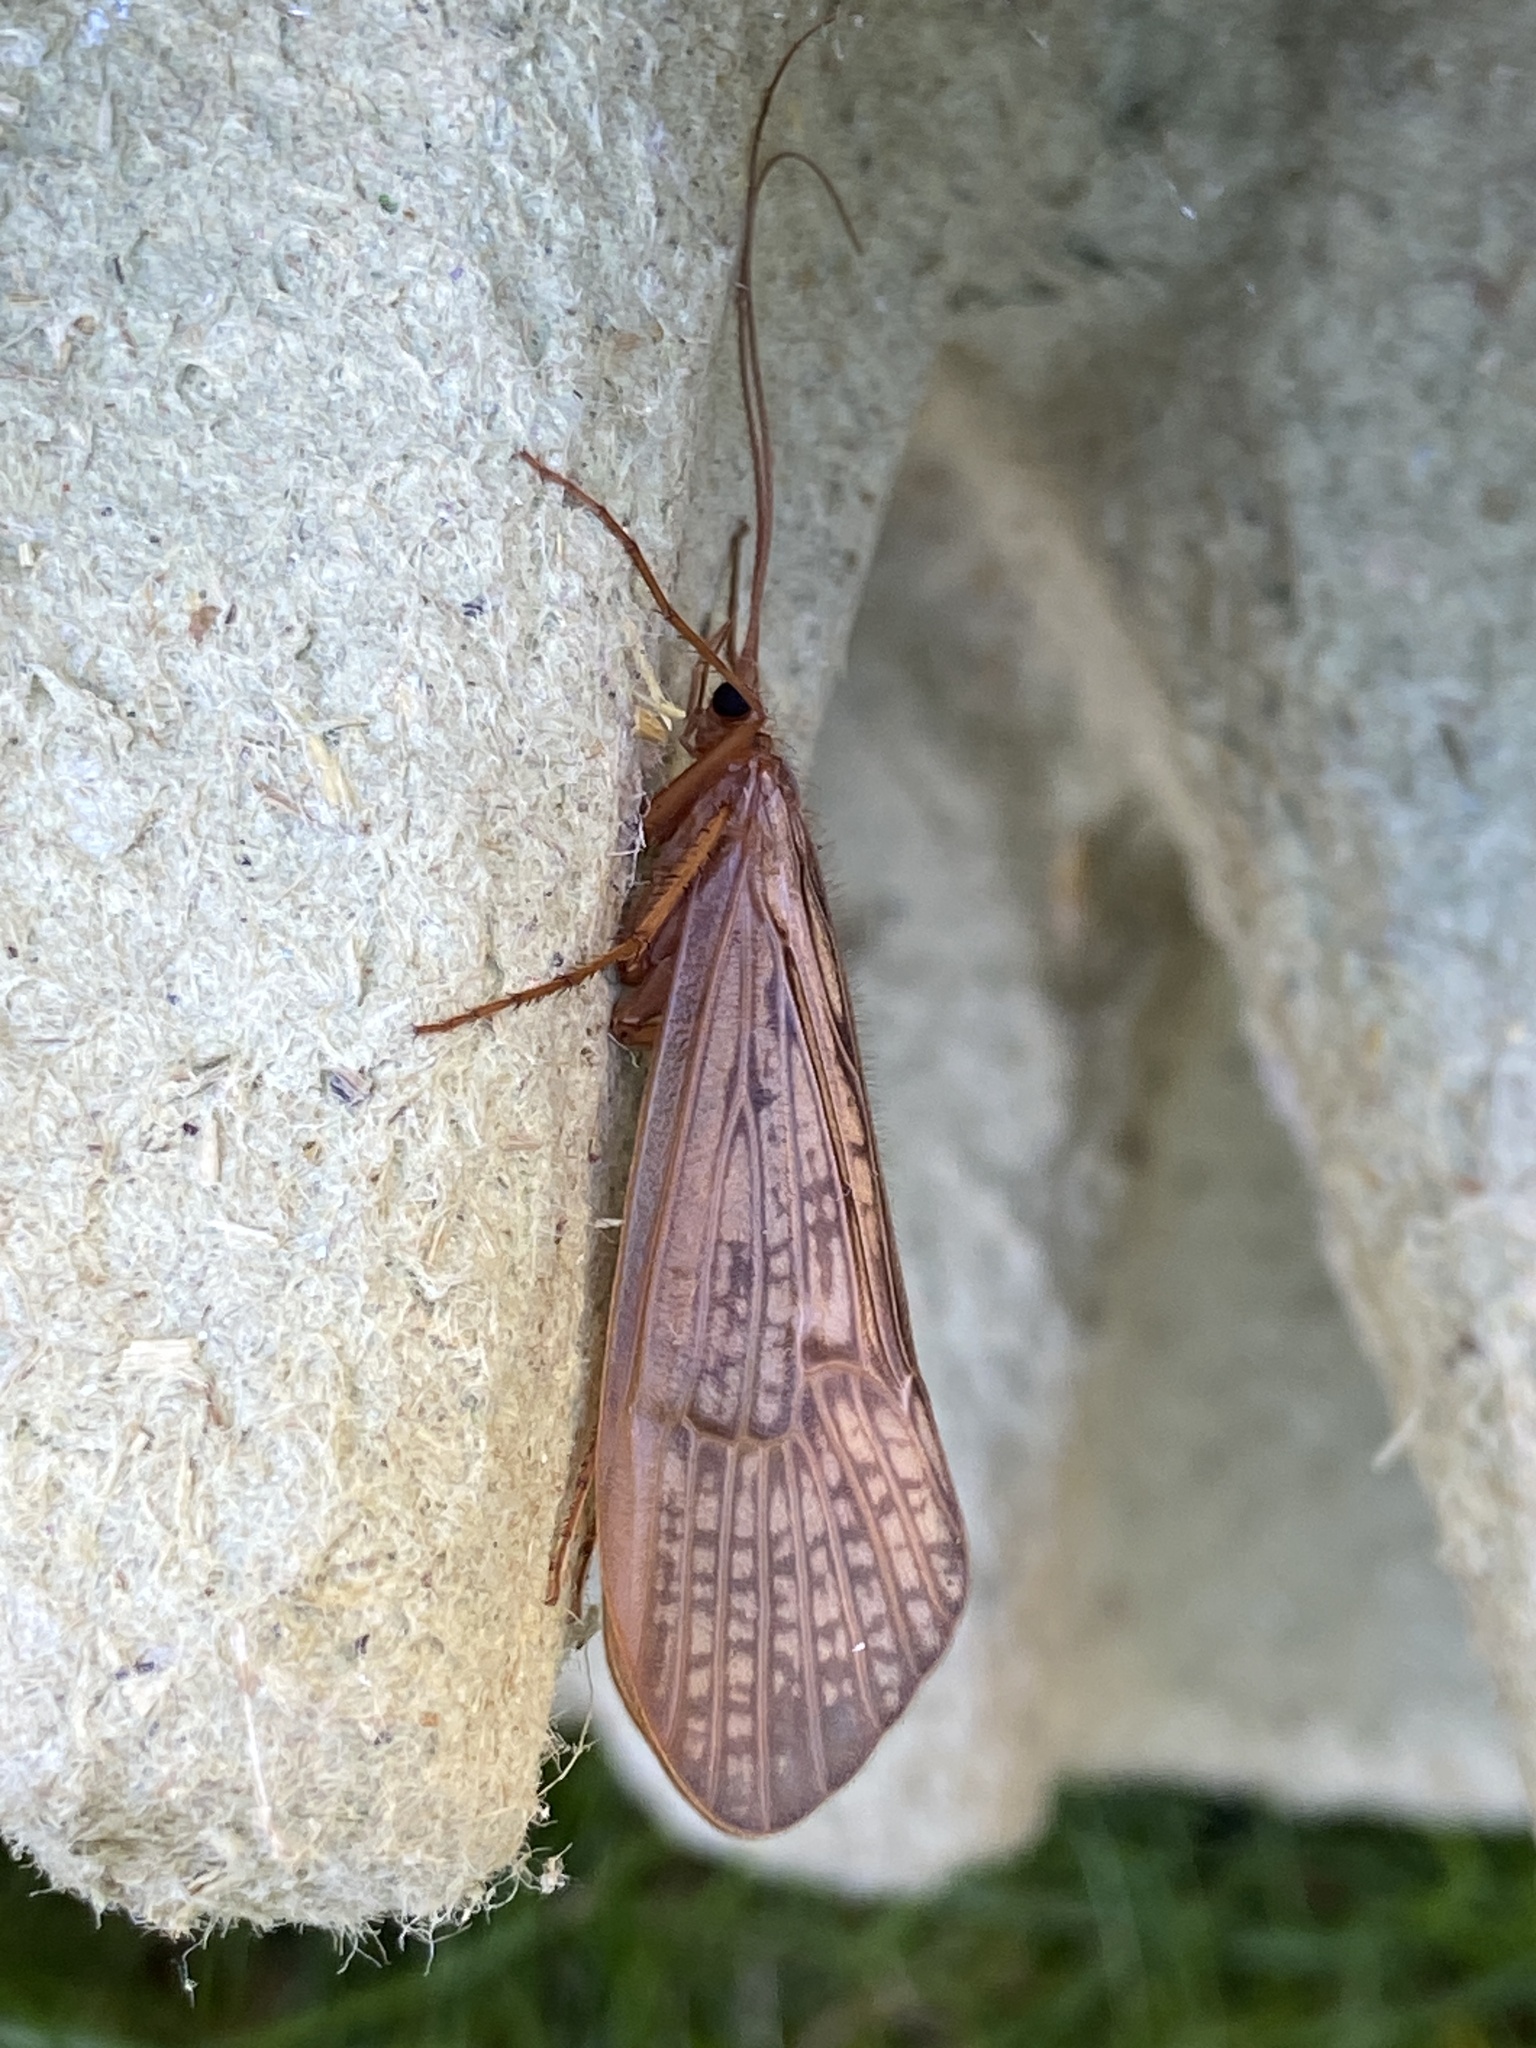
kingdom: Animalia
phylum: Arthropoda
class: Insecta
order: Trichoptera
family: Limnephilidae
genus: Halesus
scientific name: Halesus digitatus
